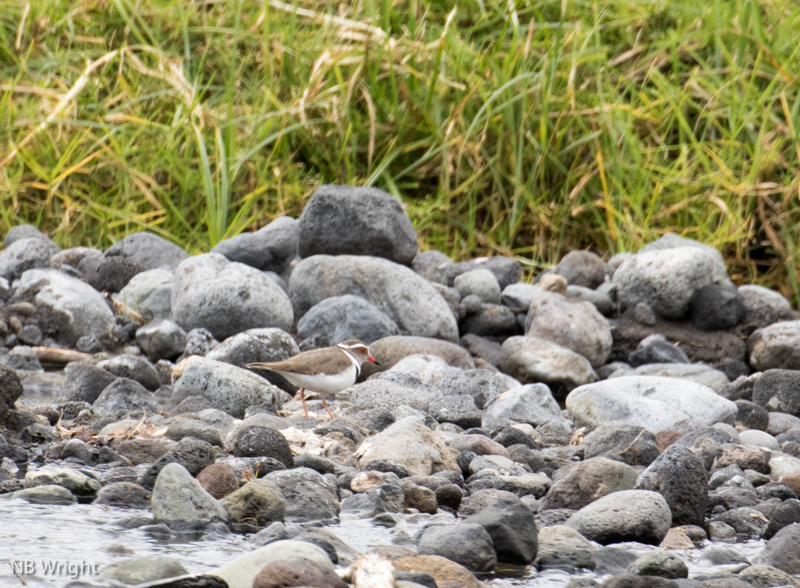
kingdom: Animalia
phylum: Chordata
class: Aves
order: Charadriiformes
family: Charadriidae
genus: Charadrius
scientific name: Charadrius tricollaris
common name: Three-banded plover
